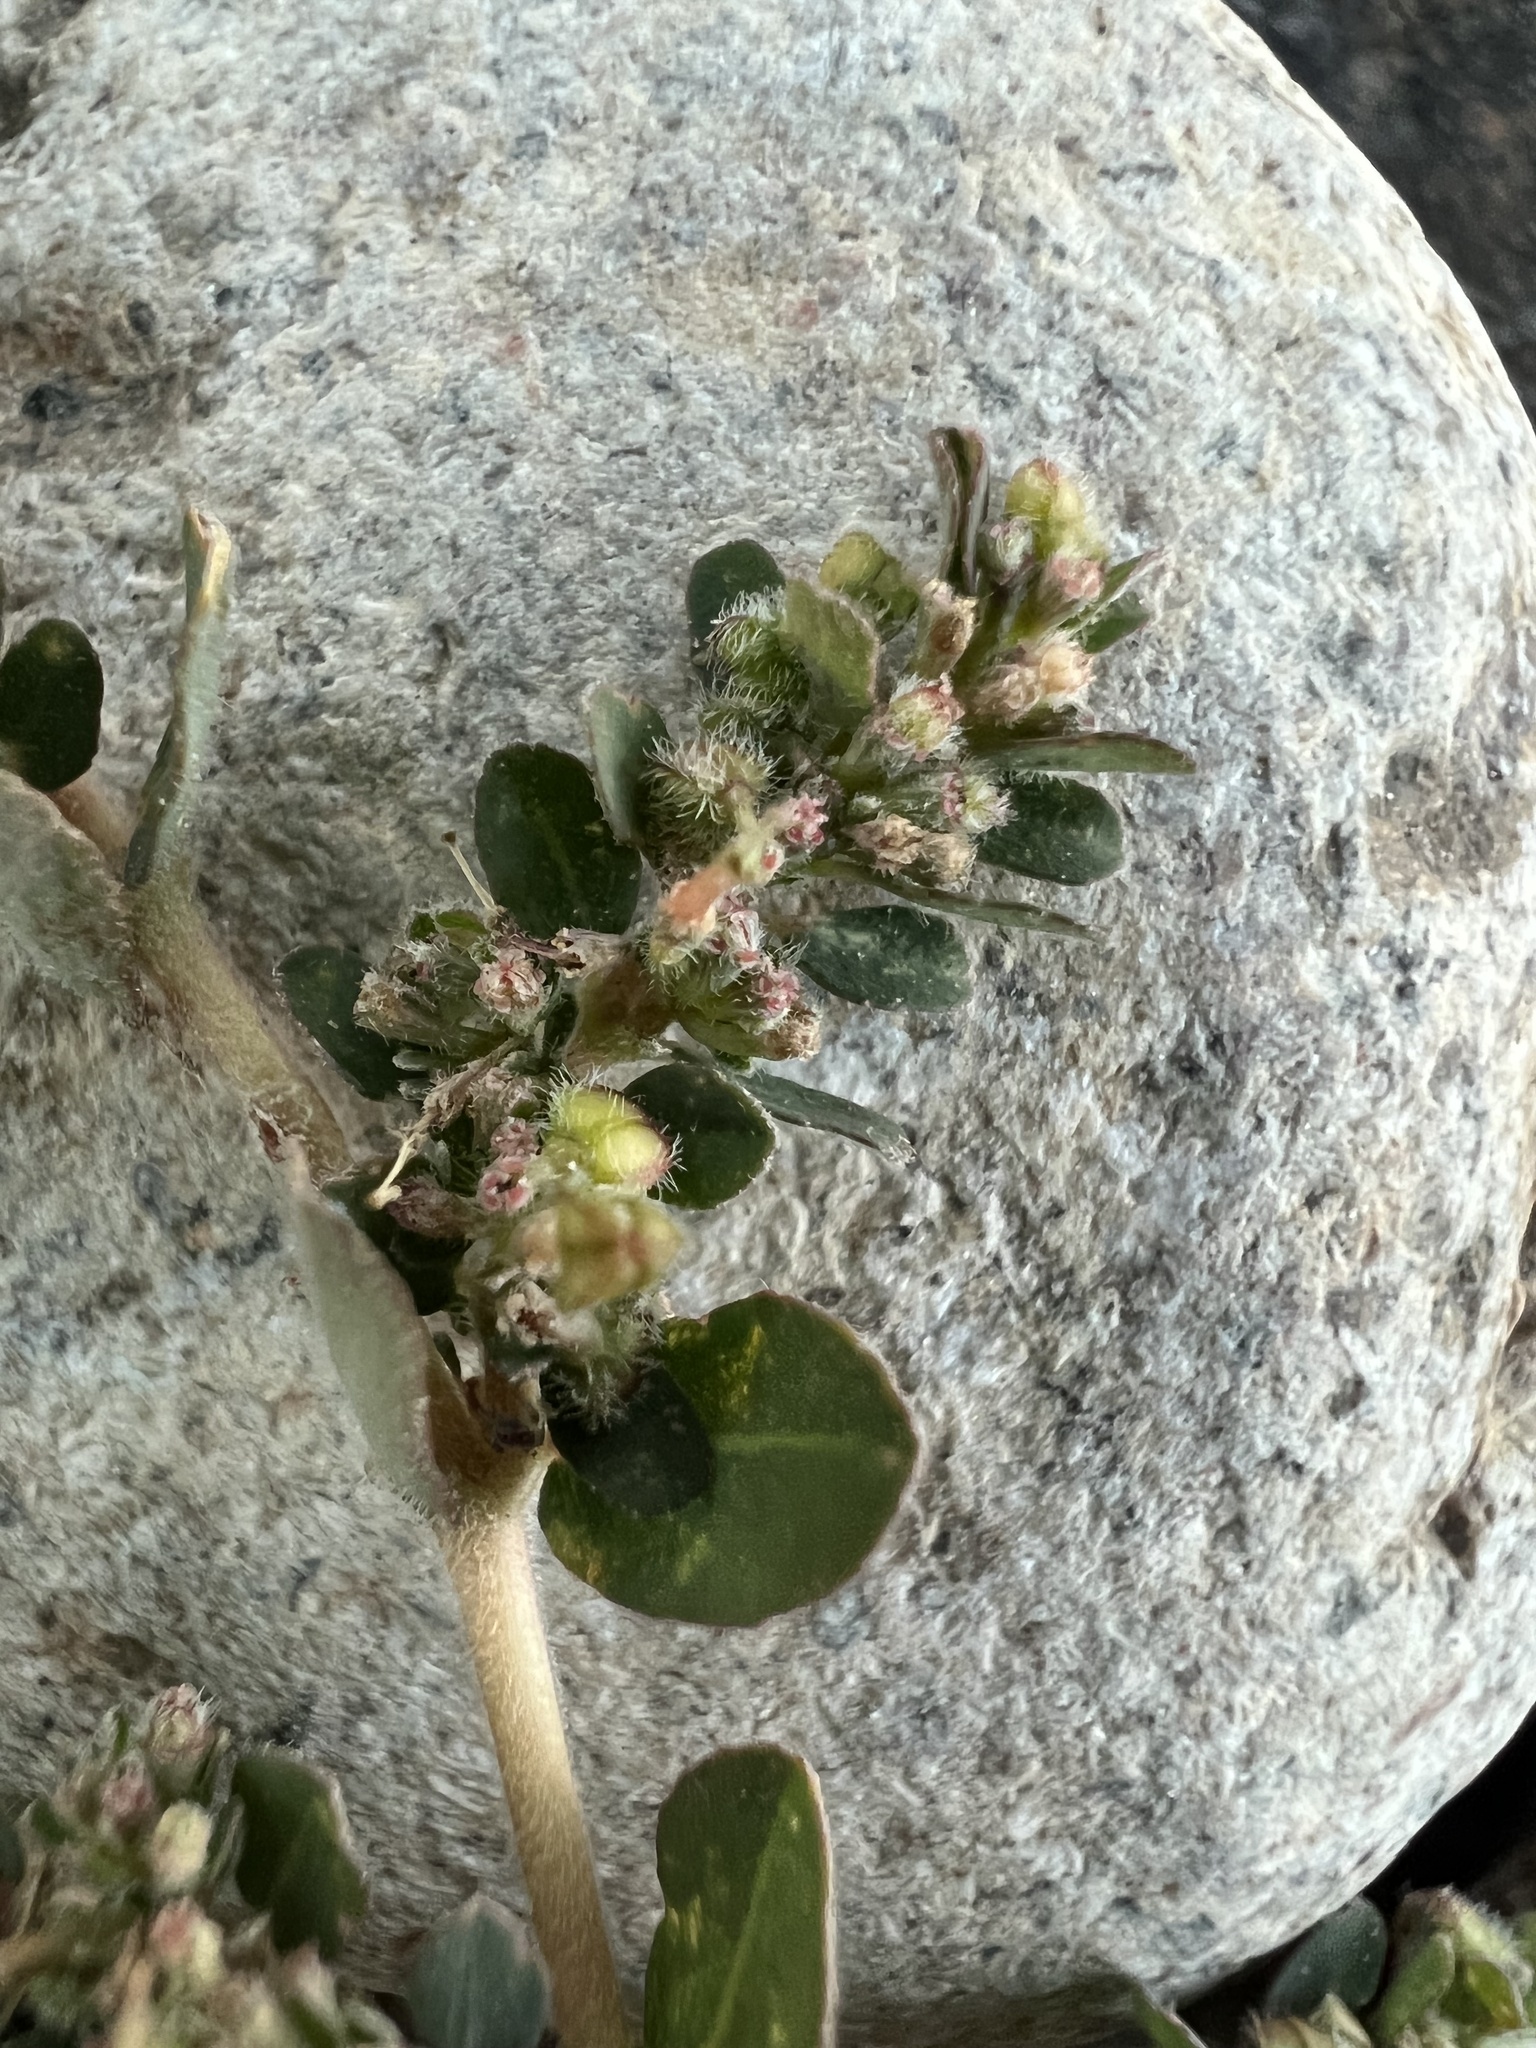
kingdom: Plantae
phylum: Tracheophyta
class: Magnoliopsida
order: Malpighiales
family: Euphorbiaceae
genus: Euphorbia
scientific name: Euphorbia prostrata
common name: Prostrate sandmat
